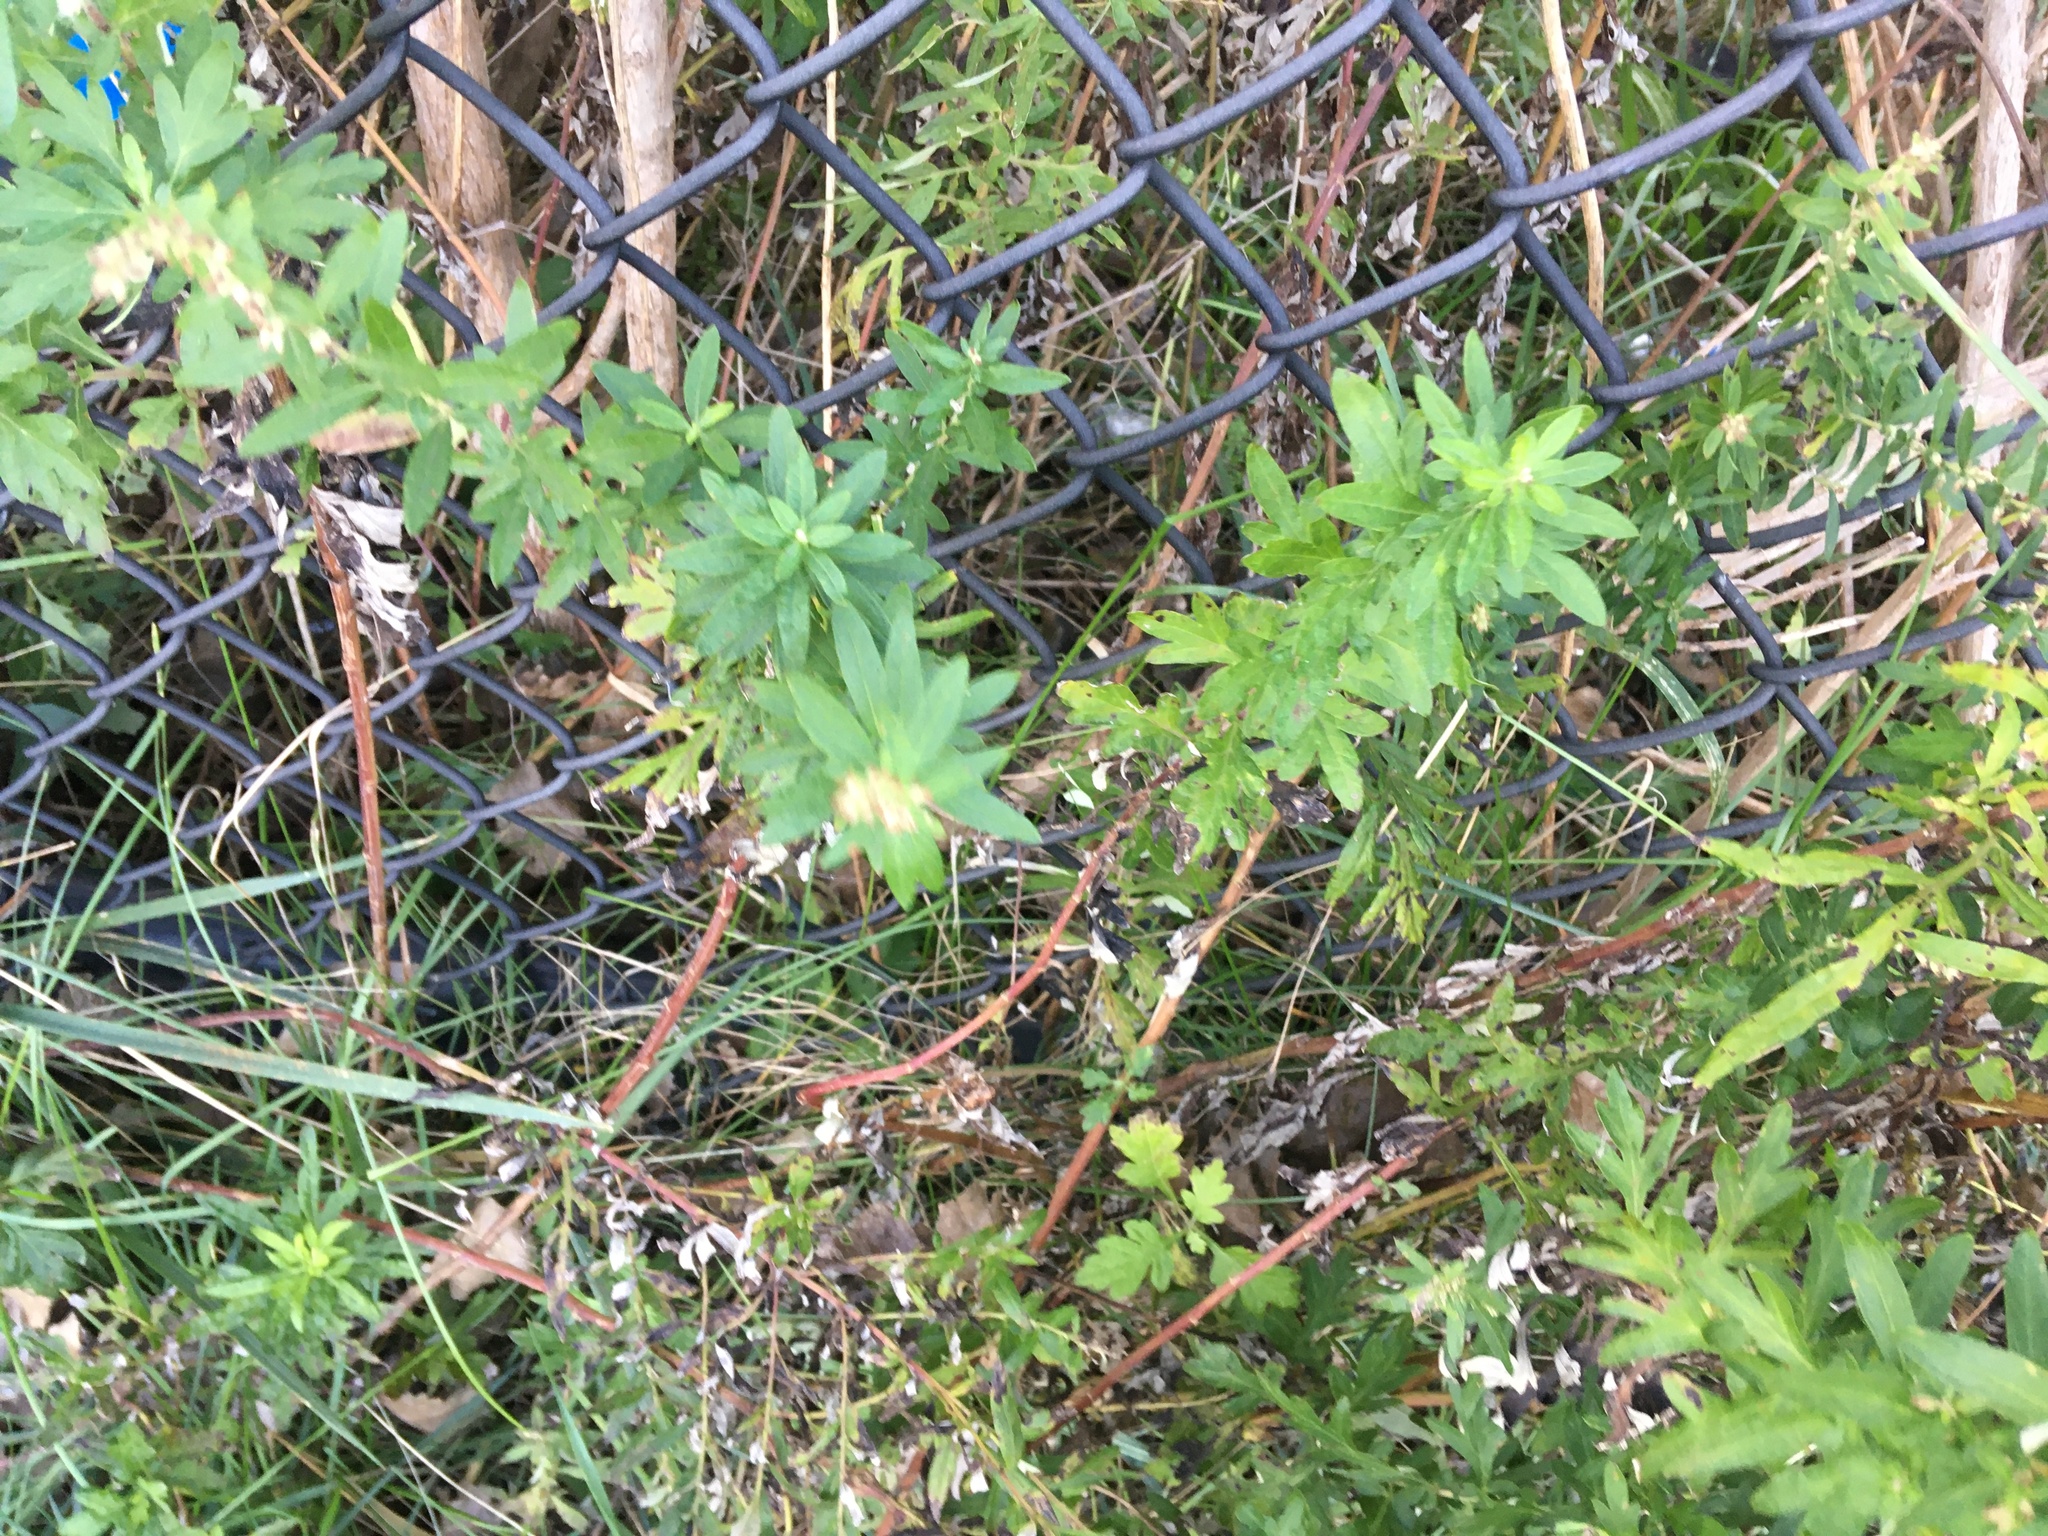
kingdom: Plantae
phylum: Tracheophyta
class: Magnoliopsida
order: Asterales
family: Asteraceae
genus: Artemisia
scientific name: Artemisia vulgaris
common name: Mugwort
